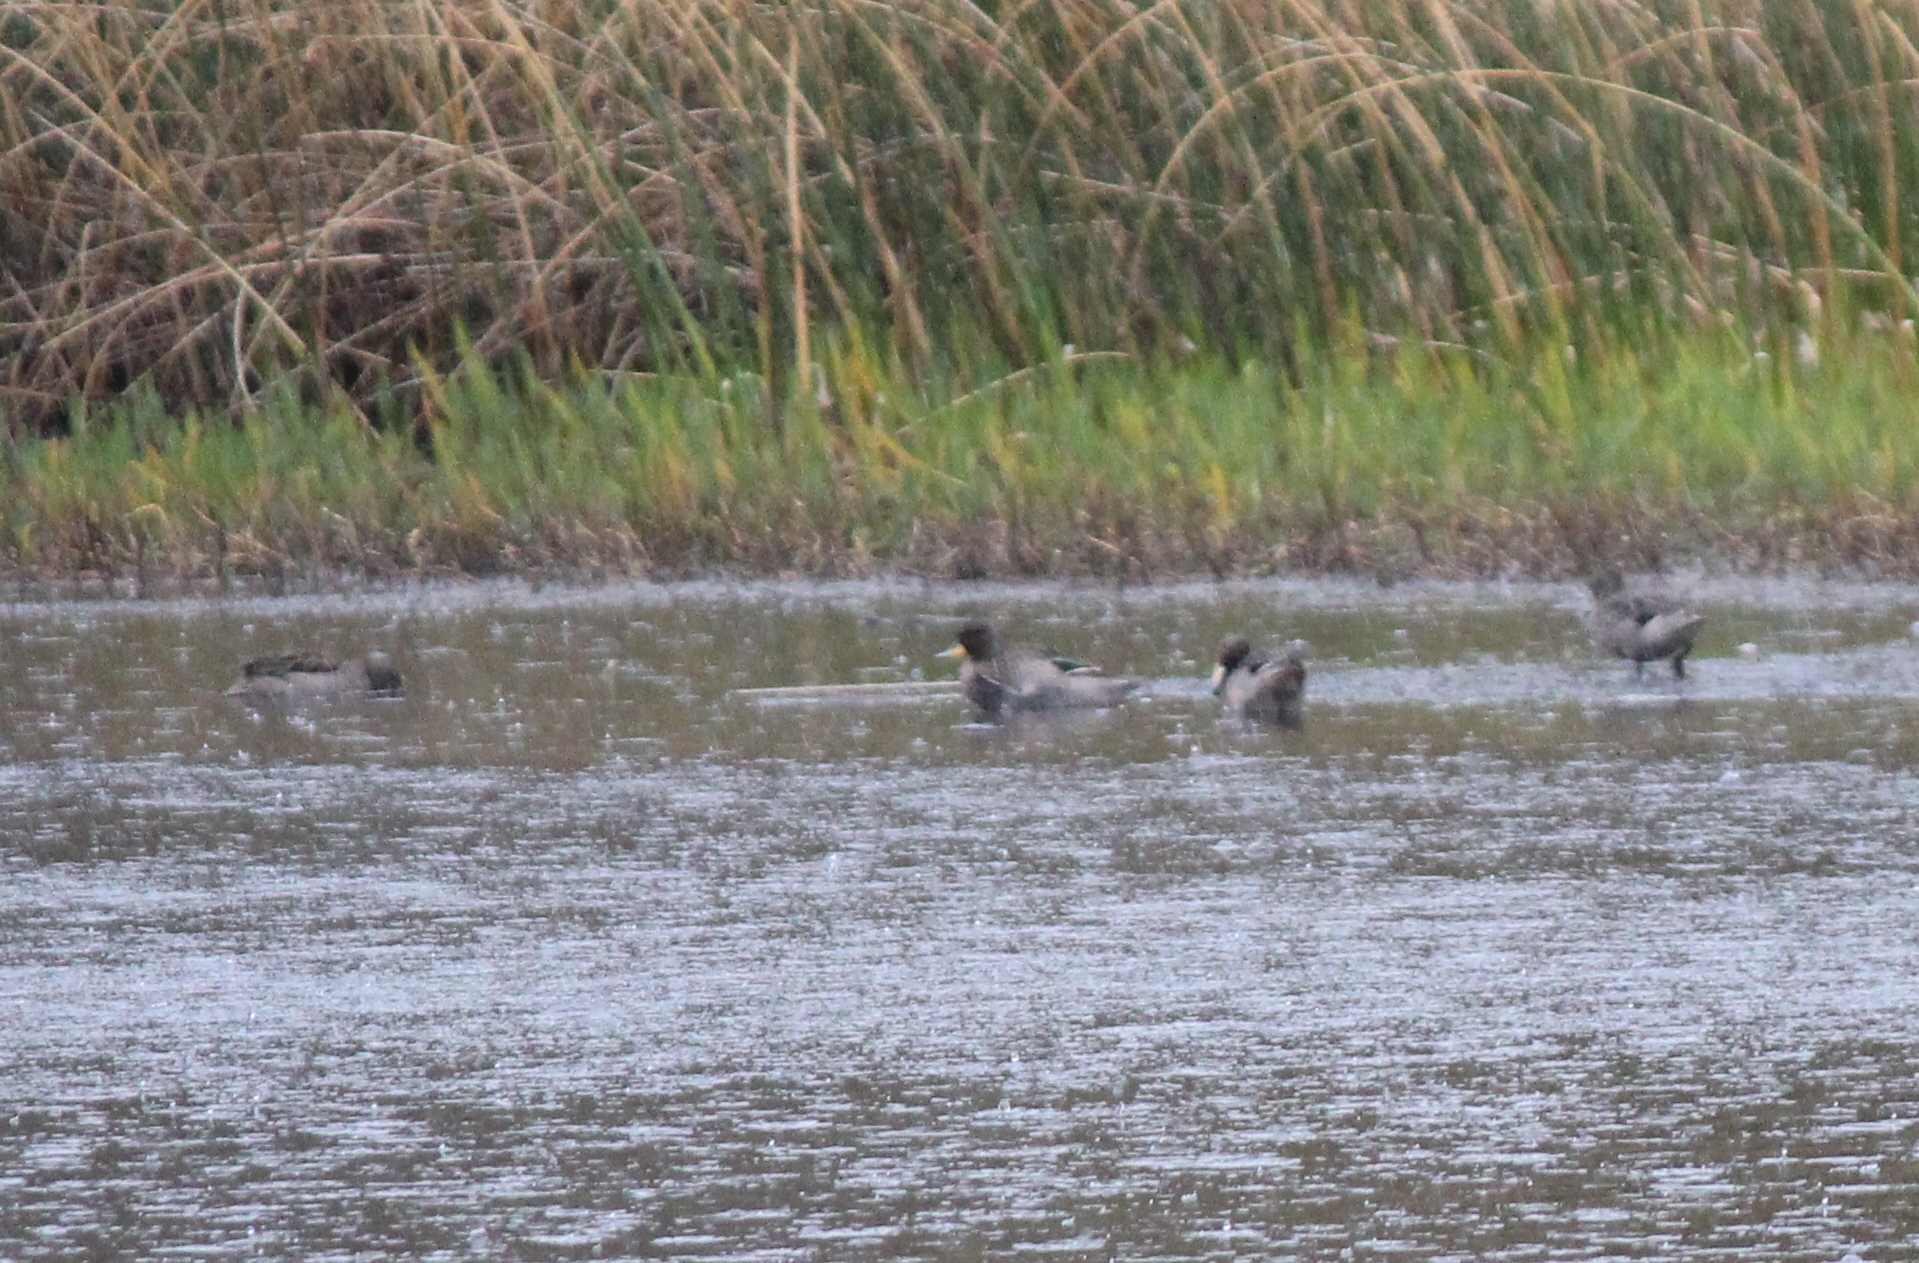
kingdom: Animalia
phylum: Chordata
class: Aves
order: Anseriformes
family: Anatidae
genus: Anas
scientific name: Anas flavirostris
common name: Yellow-billed teal
